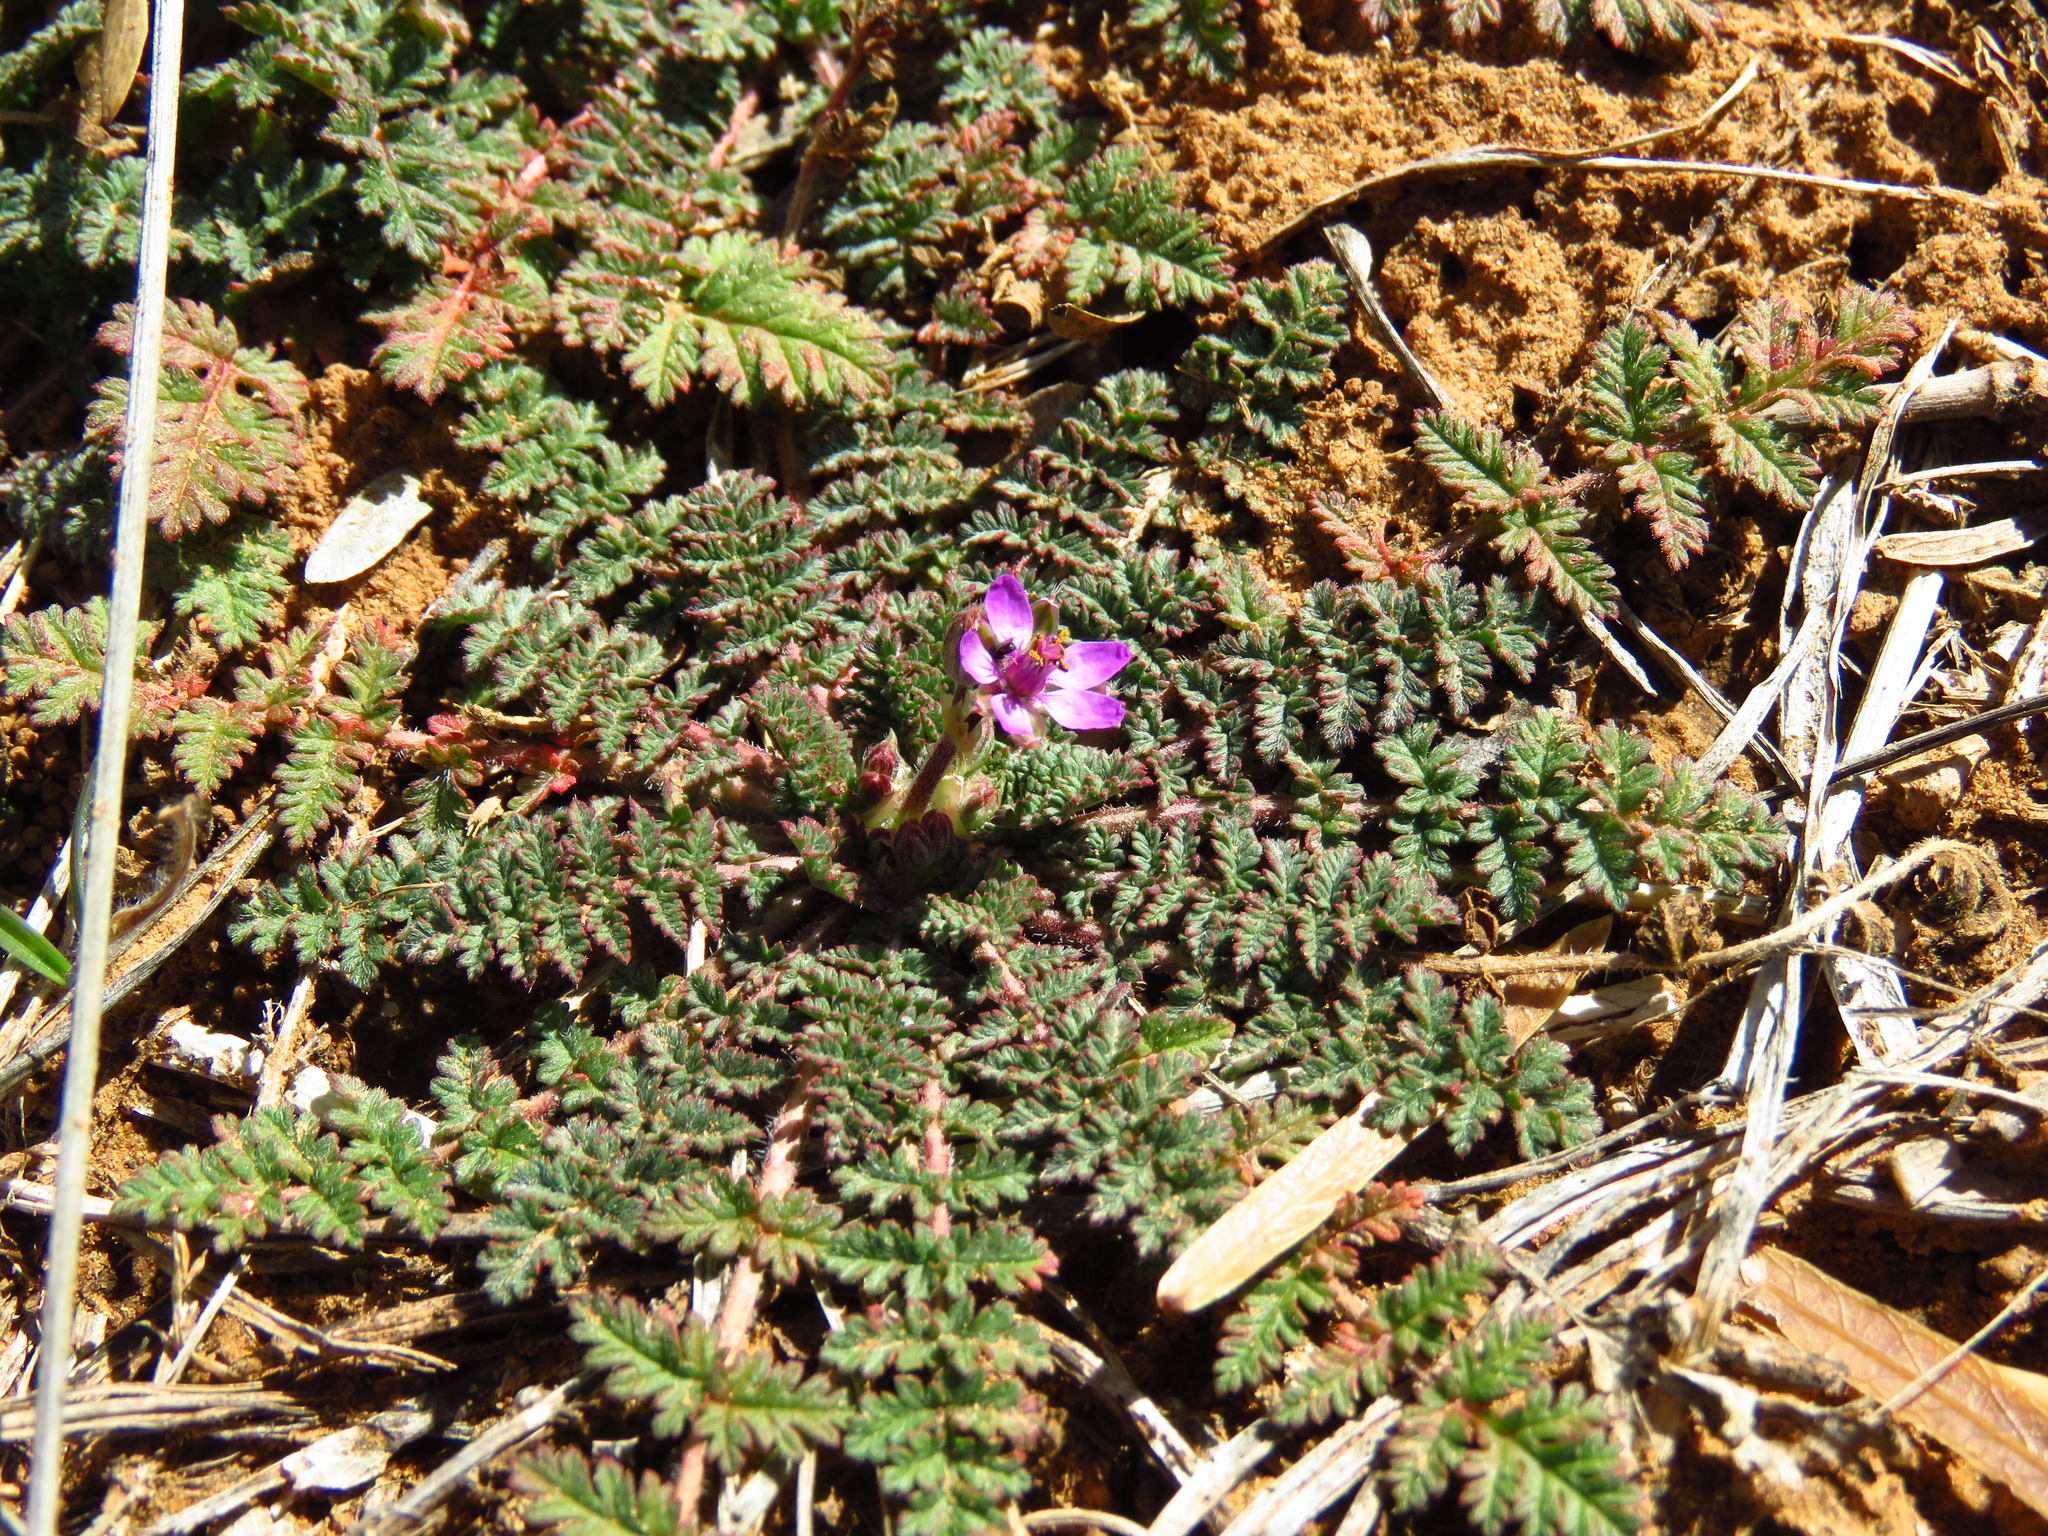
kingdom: Plantae
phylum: Tracheophyta
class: Magnoliopsida
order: Geraniales
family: Geraniaceae
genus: Erodium
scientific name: Erodium cicutarium
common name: Common stork's-bill
